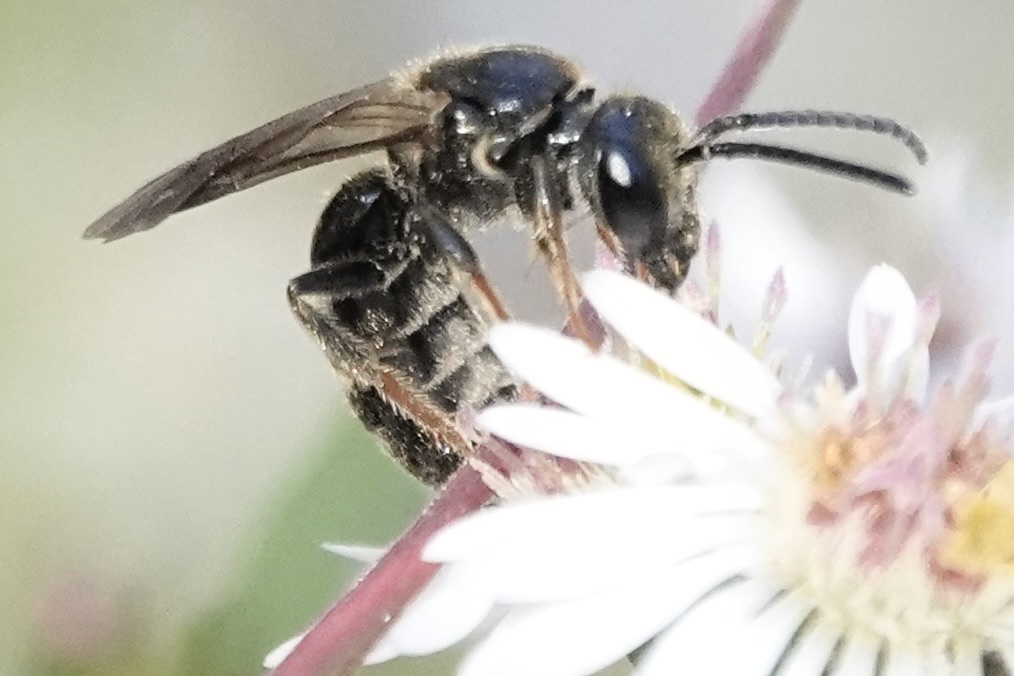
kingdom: Animalia
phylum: Arthropoda
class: Insecta
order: Hymenoptera
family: Halictidae
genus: Lasioglossum
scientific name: Lasioglossum fuscipenne
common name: Brown-winged sweat bee
